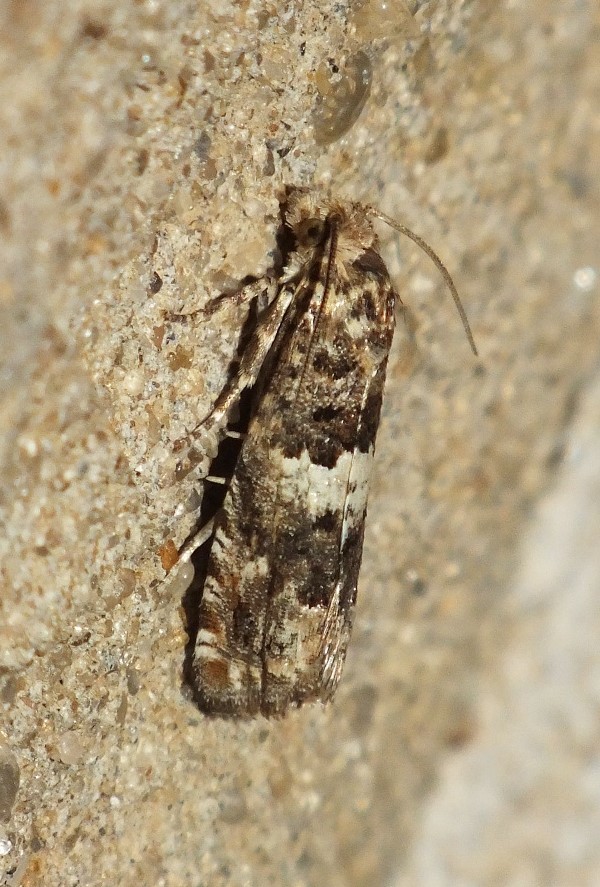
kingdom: Animalia
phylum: Arthropoda
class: Insecta
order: Lepidoptera
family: Tortricidae
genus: Epiblema
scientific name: Epiblema graphana
